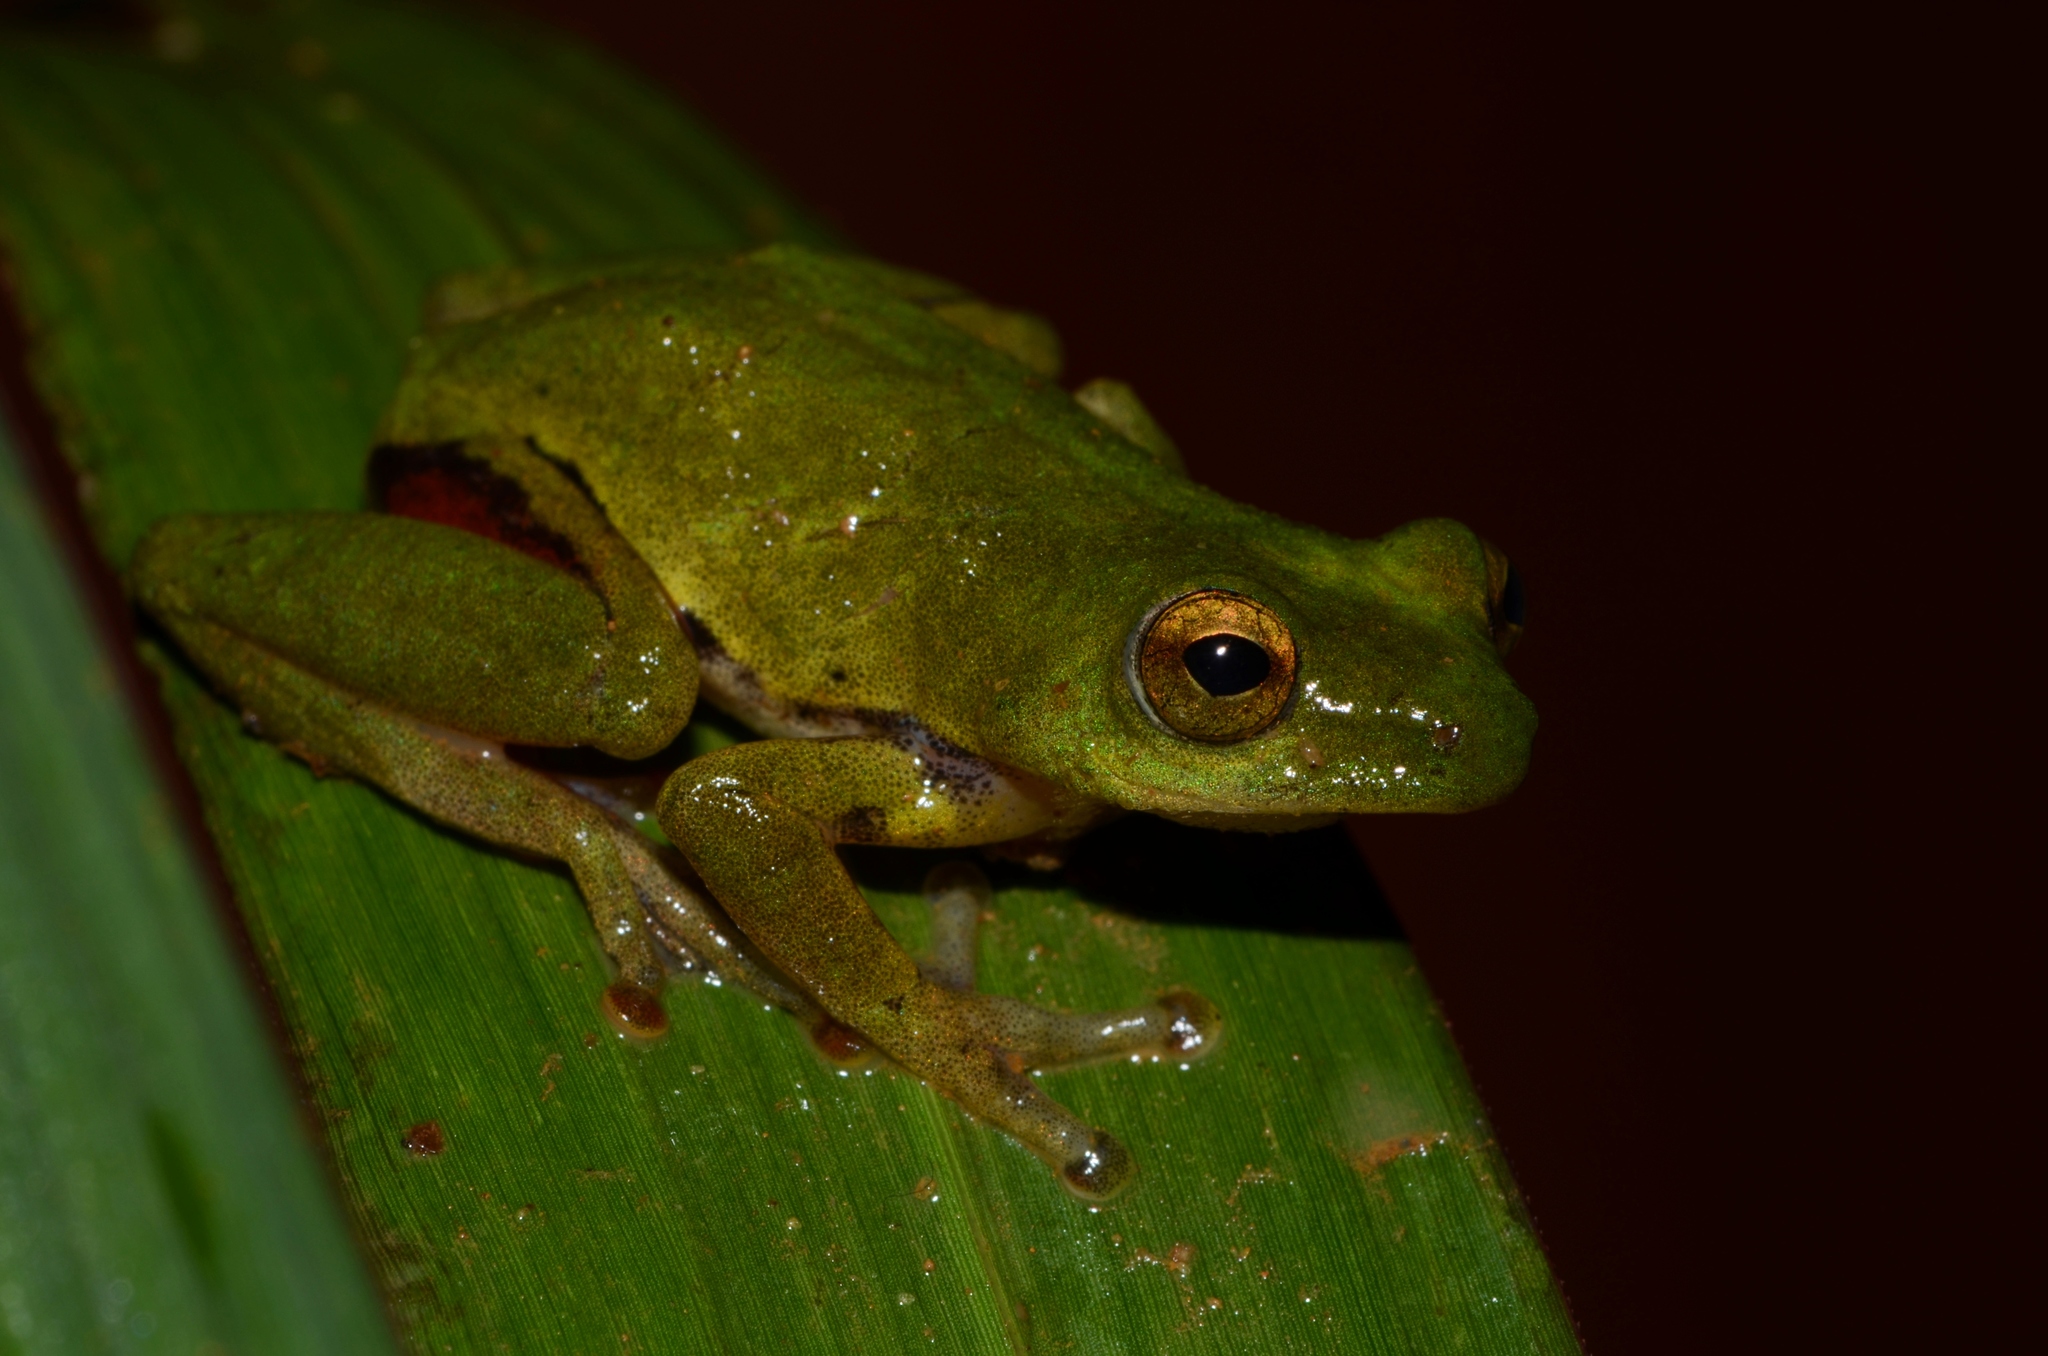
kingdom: Animalia
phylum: Chordata
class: Amphibia
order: Anura
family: Hyperoliidae
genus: Hyperolius
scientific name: Hyperolius olivaceus
